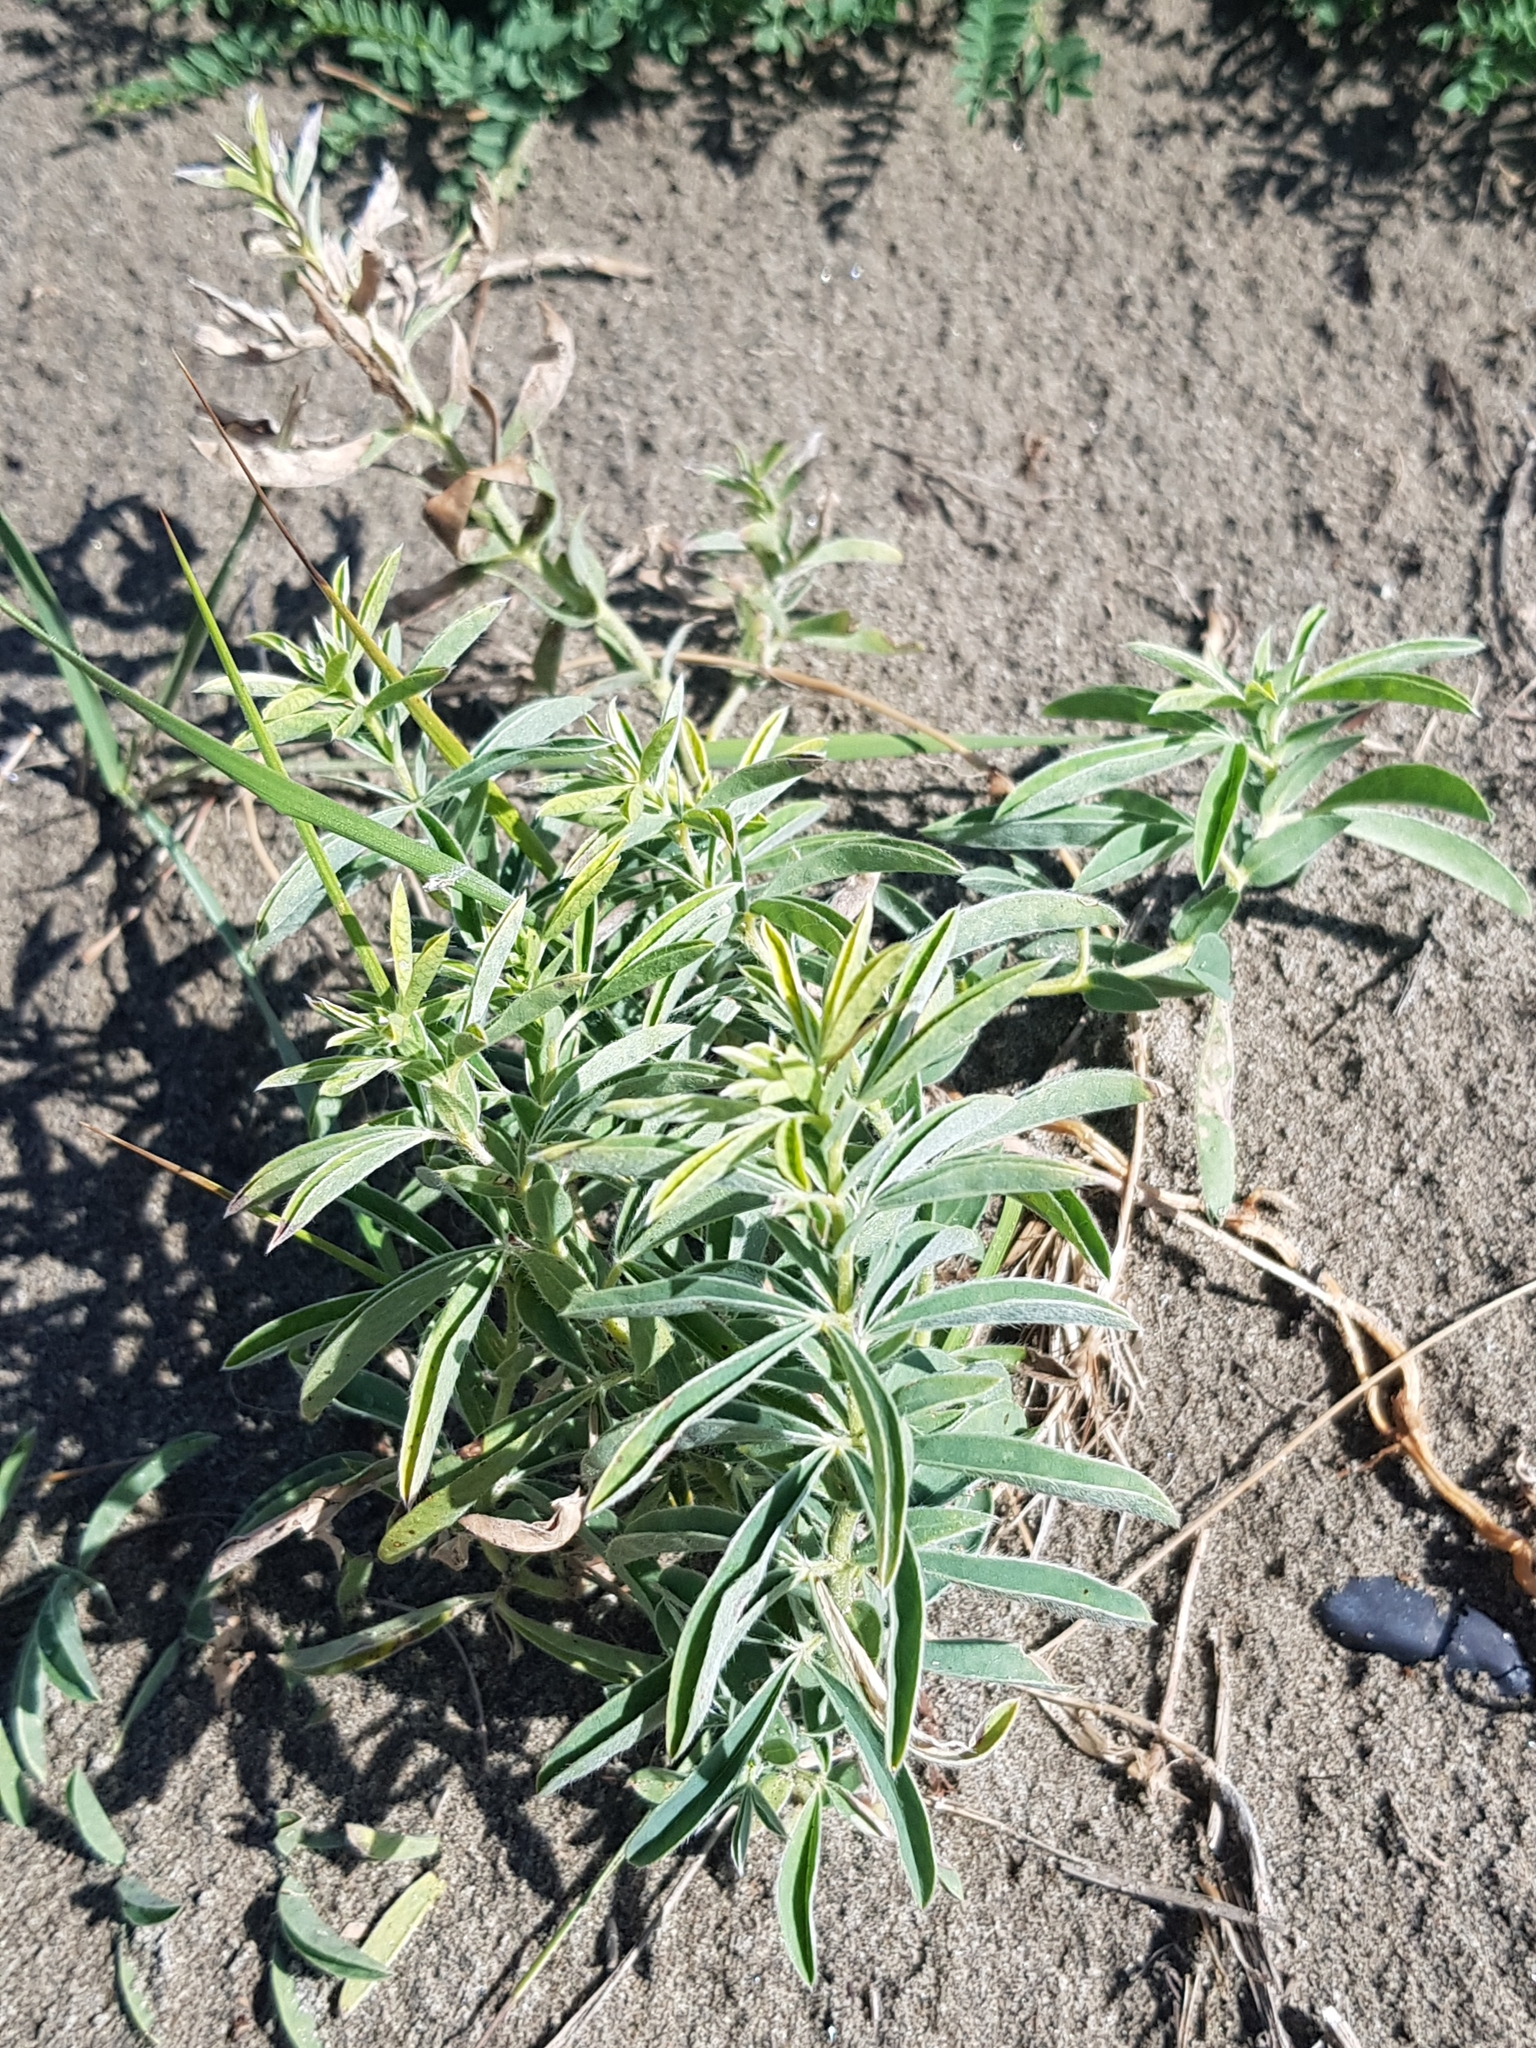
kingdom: Plantae
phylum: Tracheophyta
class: Magnoliopsida
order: Fabales
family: Fabaceae
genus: Thermopsis
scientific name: Thermopsis lanceolata
